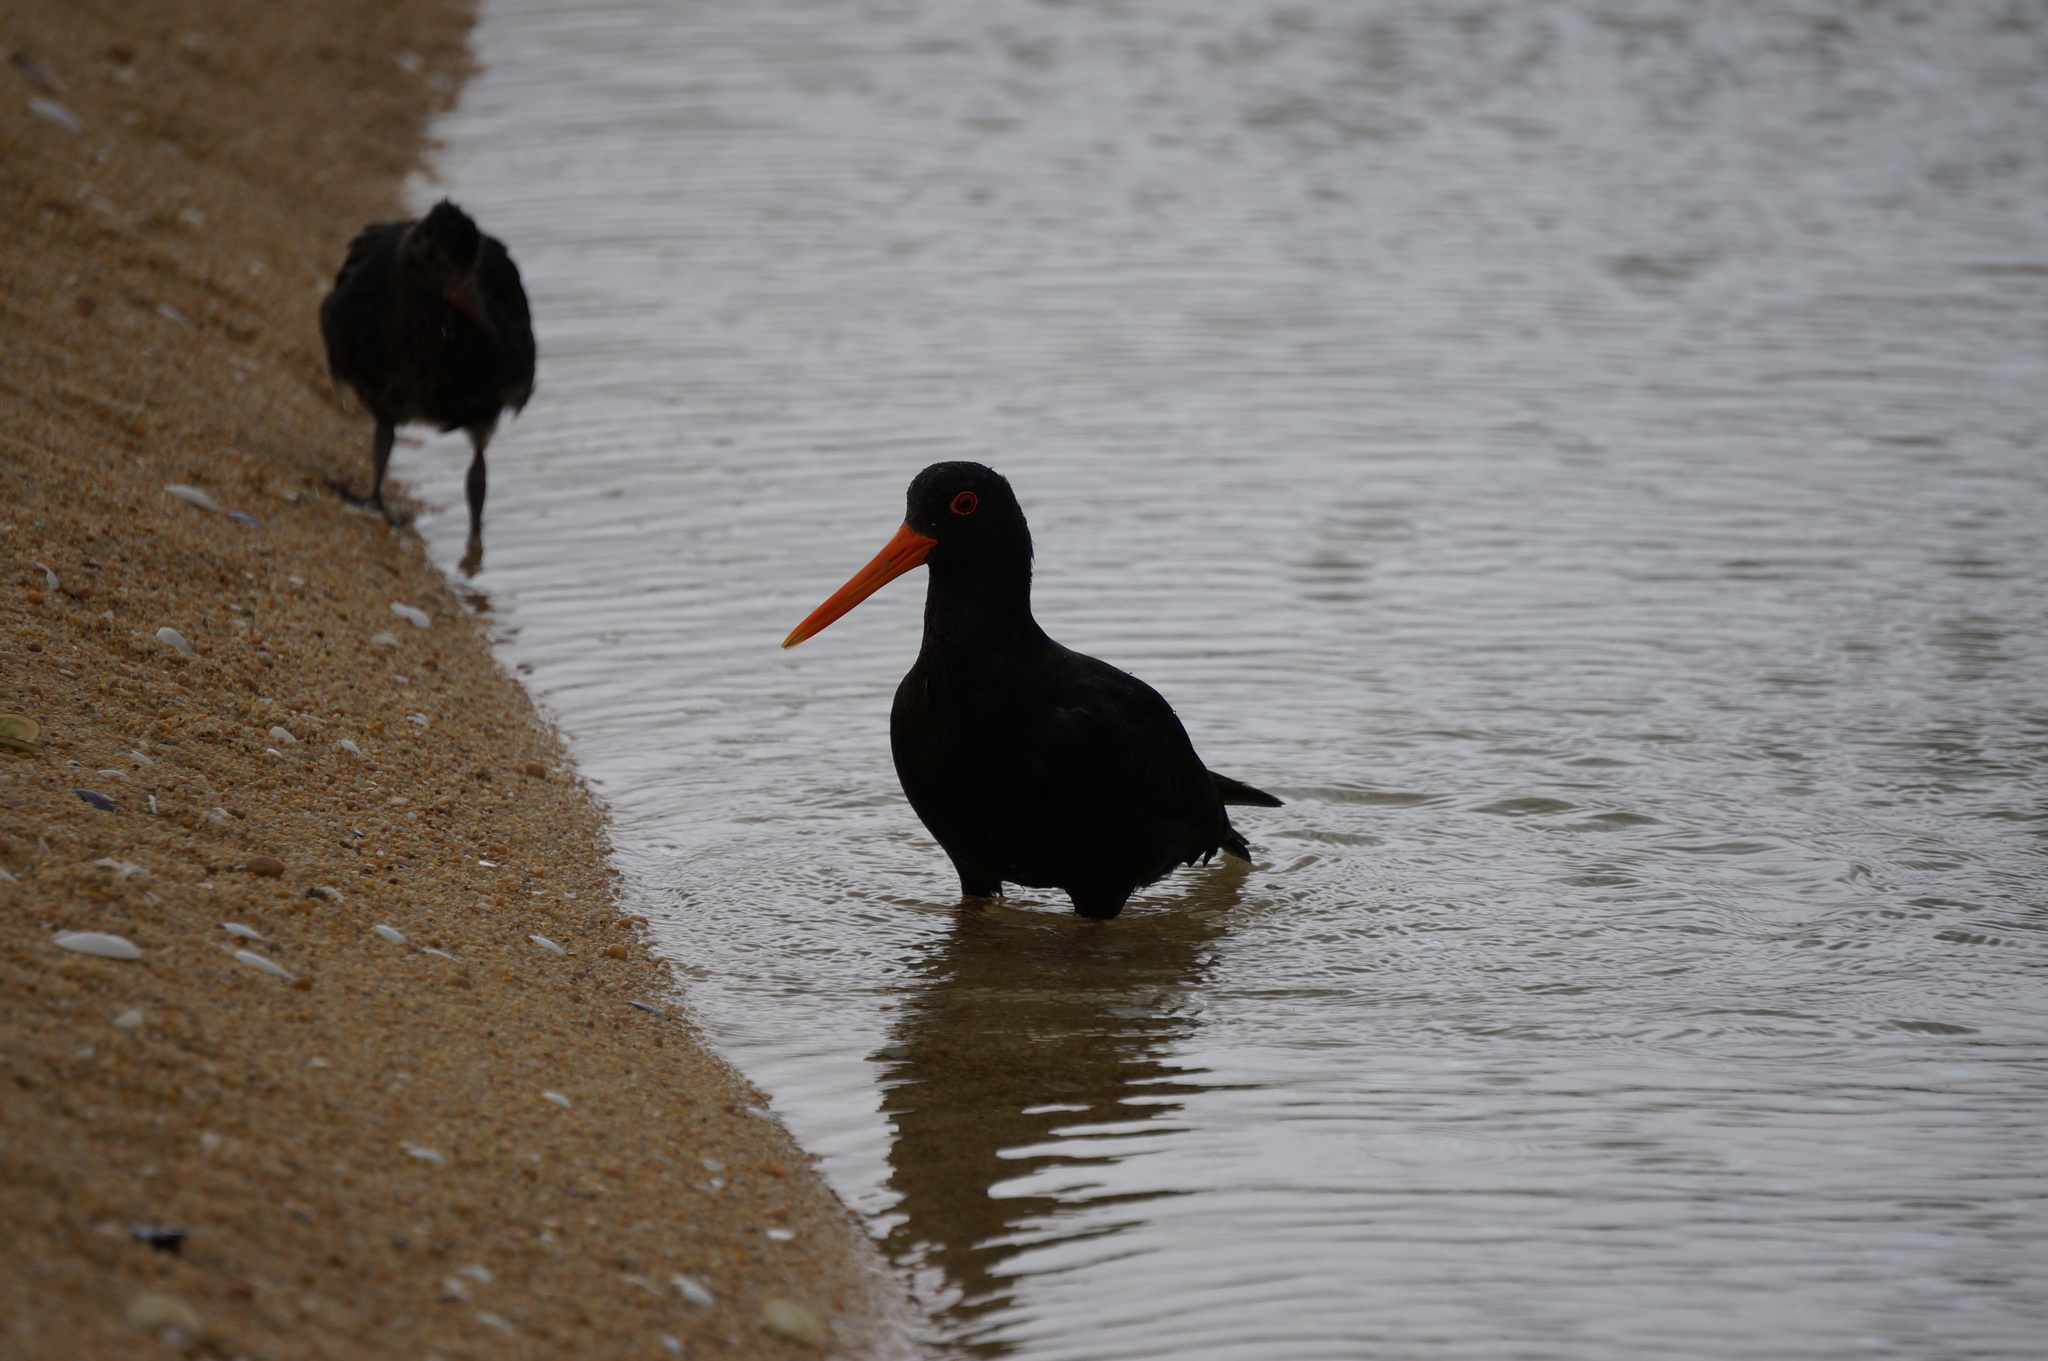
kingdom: Animalia
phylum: Chordata
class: Aves
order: Charadriiformes
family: Haematopodidae
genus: Haematopus
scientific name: Haematopus unicolor
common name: Variable oystercatcher
